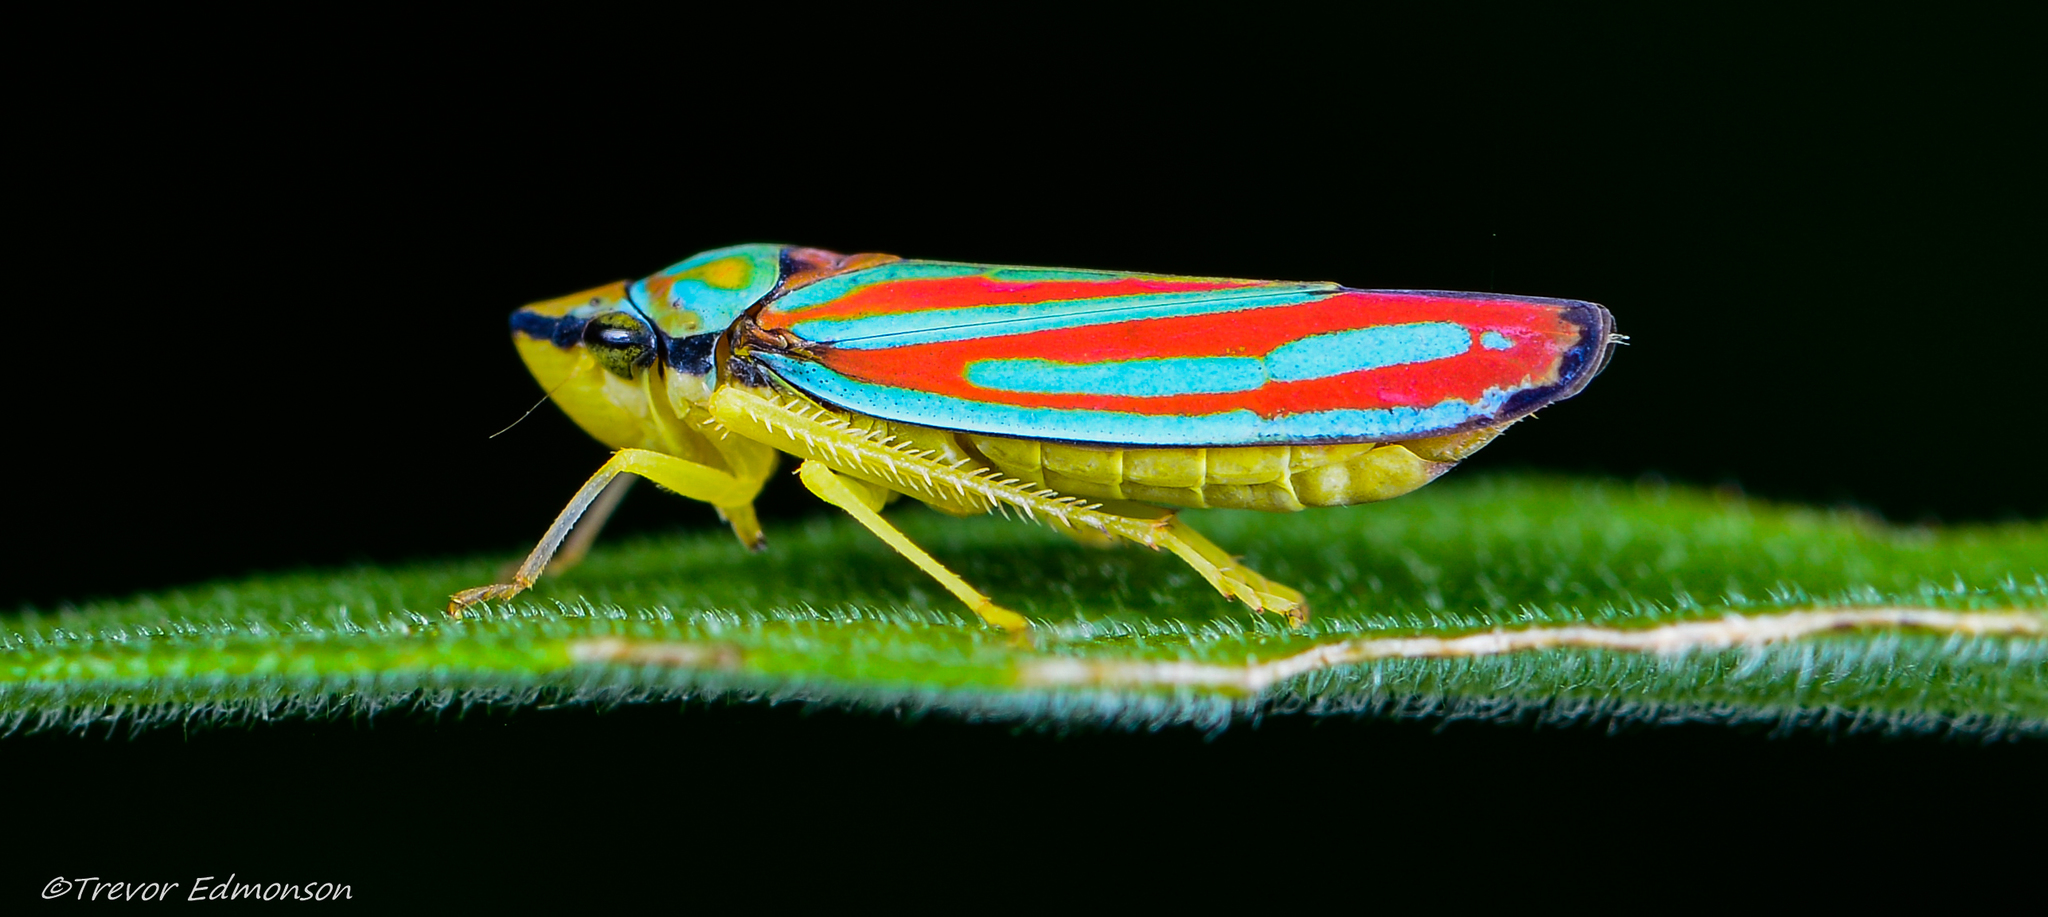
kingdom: Animalia
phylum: Arthropoda
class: Insecta
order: Hemiptera
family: Cicadellidae
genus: Graphocephala
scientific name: Graphocephala coccinea
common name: Candy-striped leafhopper
